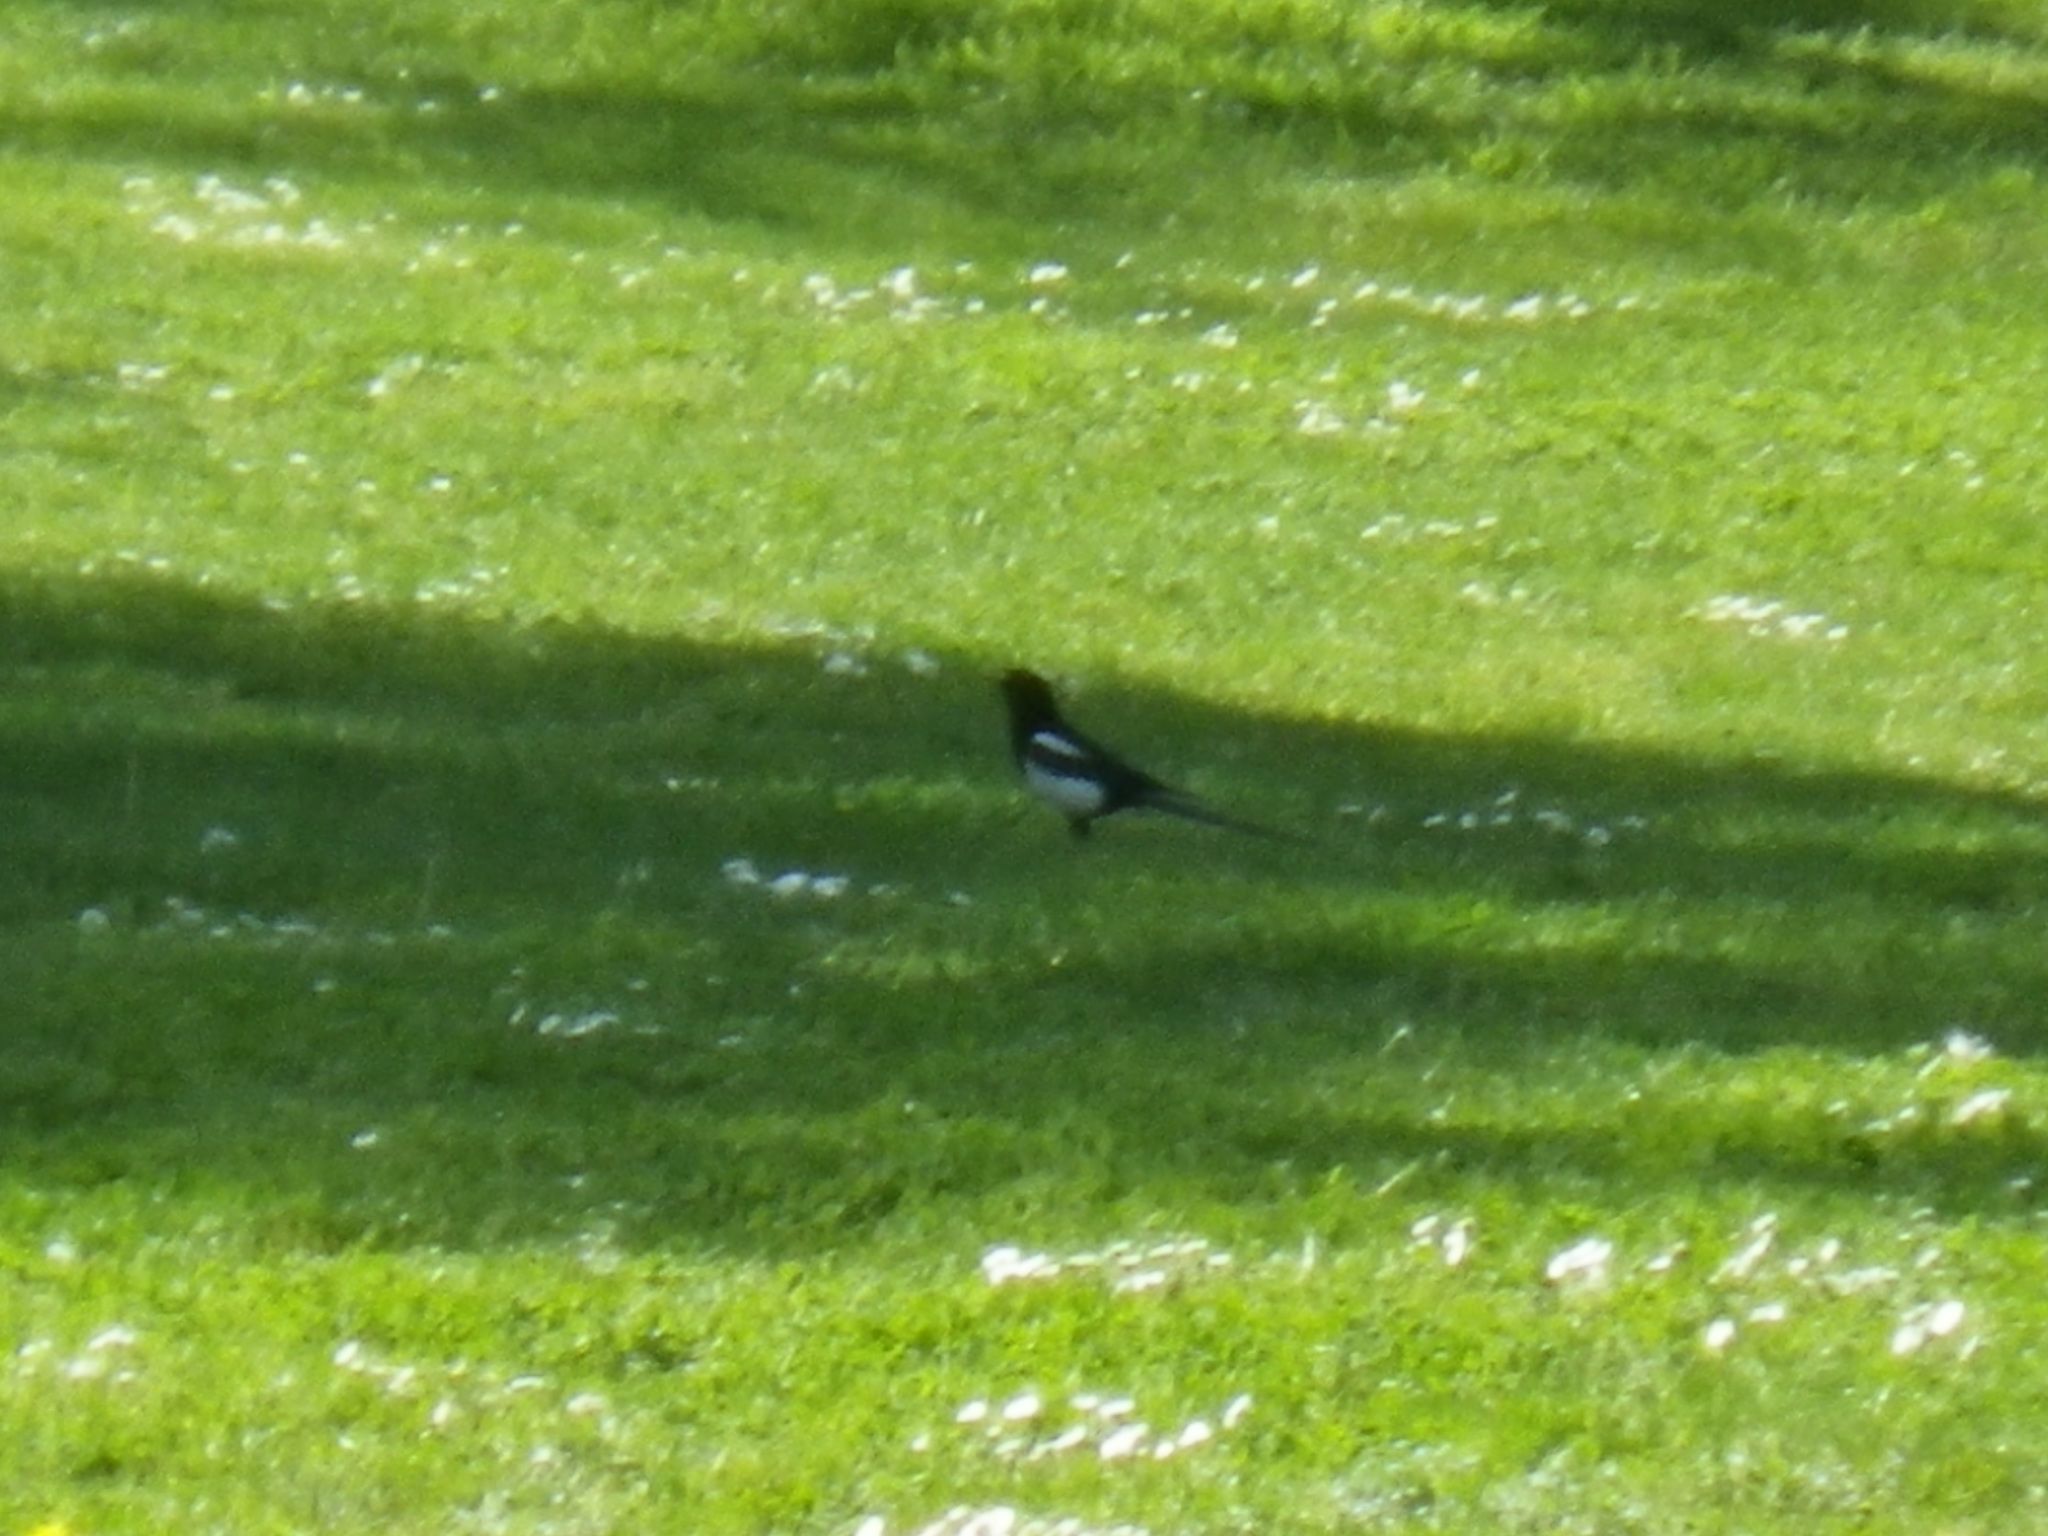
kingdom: Animalia
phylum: Chordata
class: Aves
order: Passeriformes
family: Corvidae
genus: Pica
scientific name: Pica nuttalli
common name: Yellow-billed magpie
